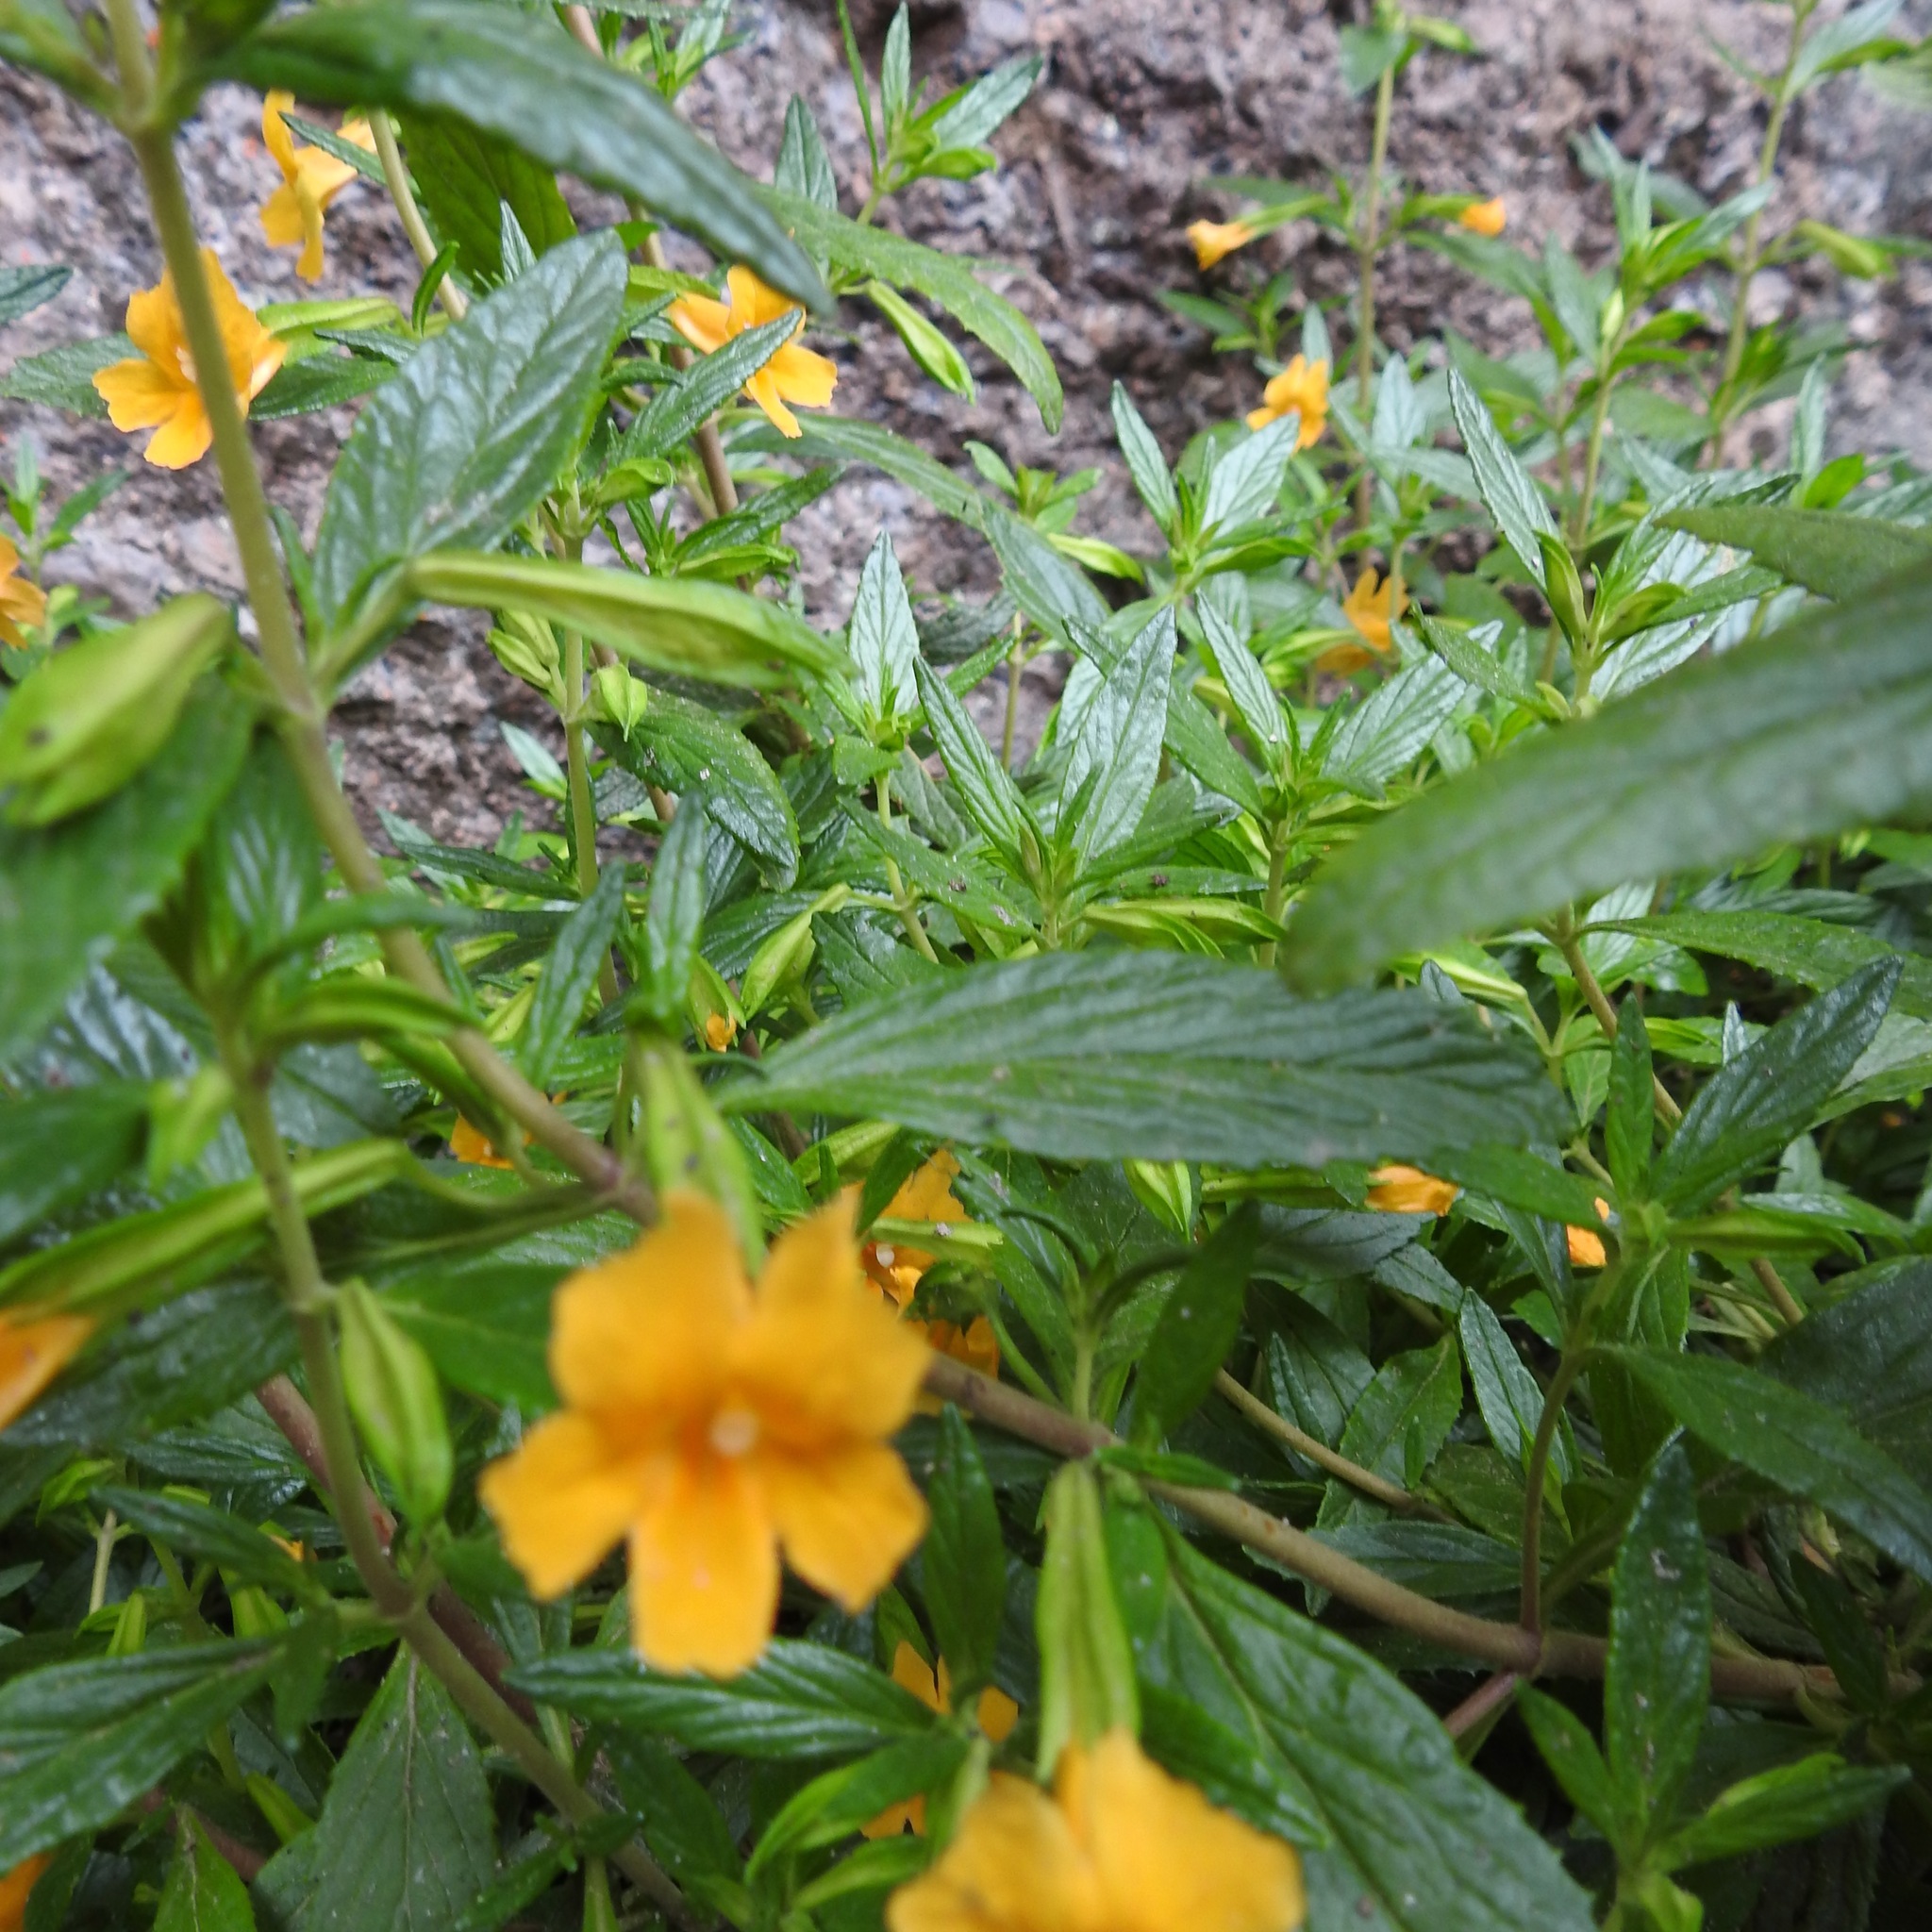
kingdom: Plantae
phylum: Tracheophyta
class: Magnoliopsida
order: Lamiales
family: Phrymaceae
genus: Diplacus
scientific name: Diplacus aurantiacus
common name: Bush monkey-flower
